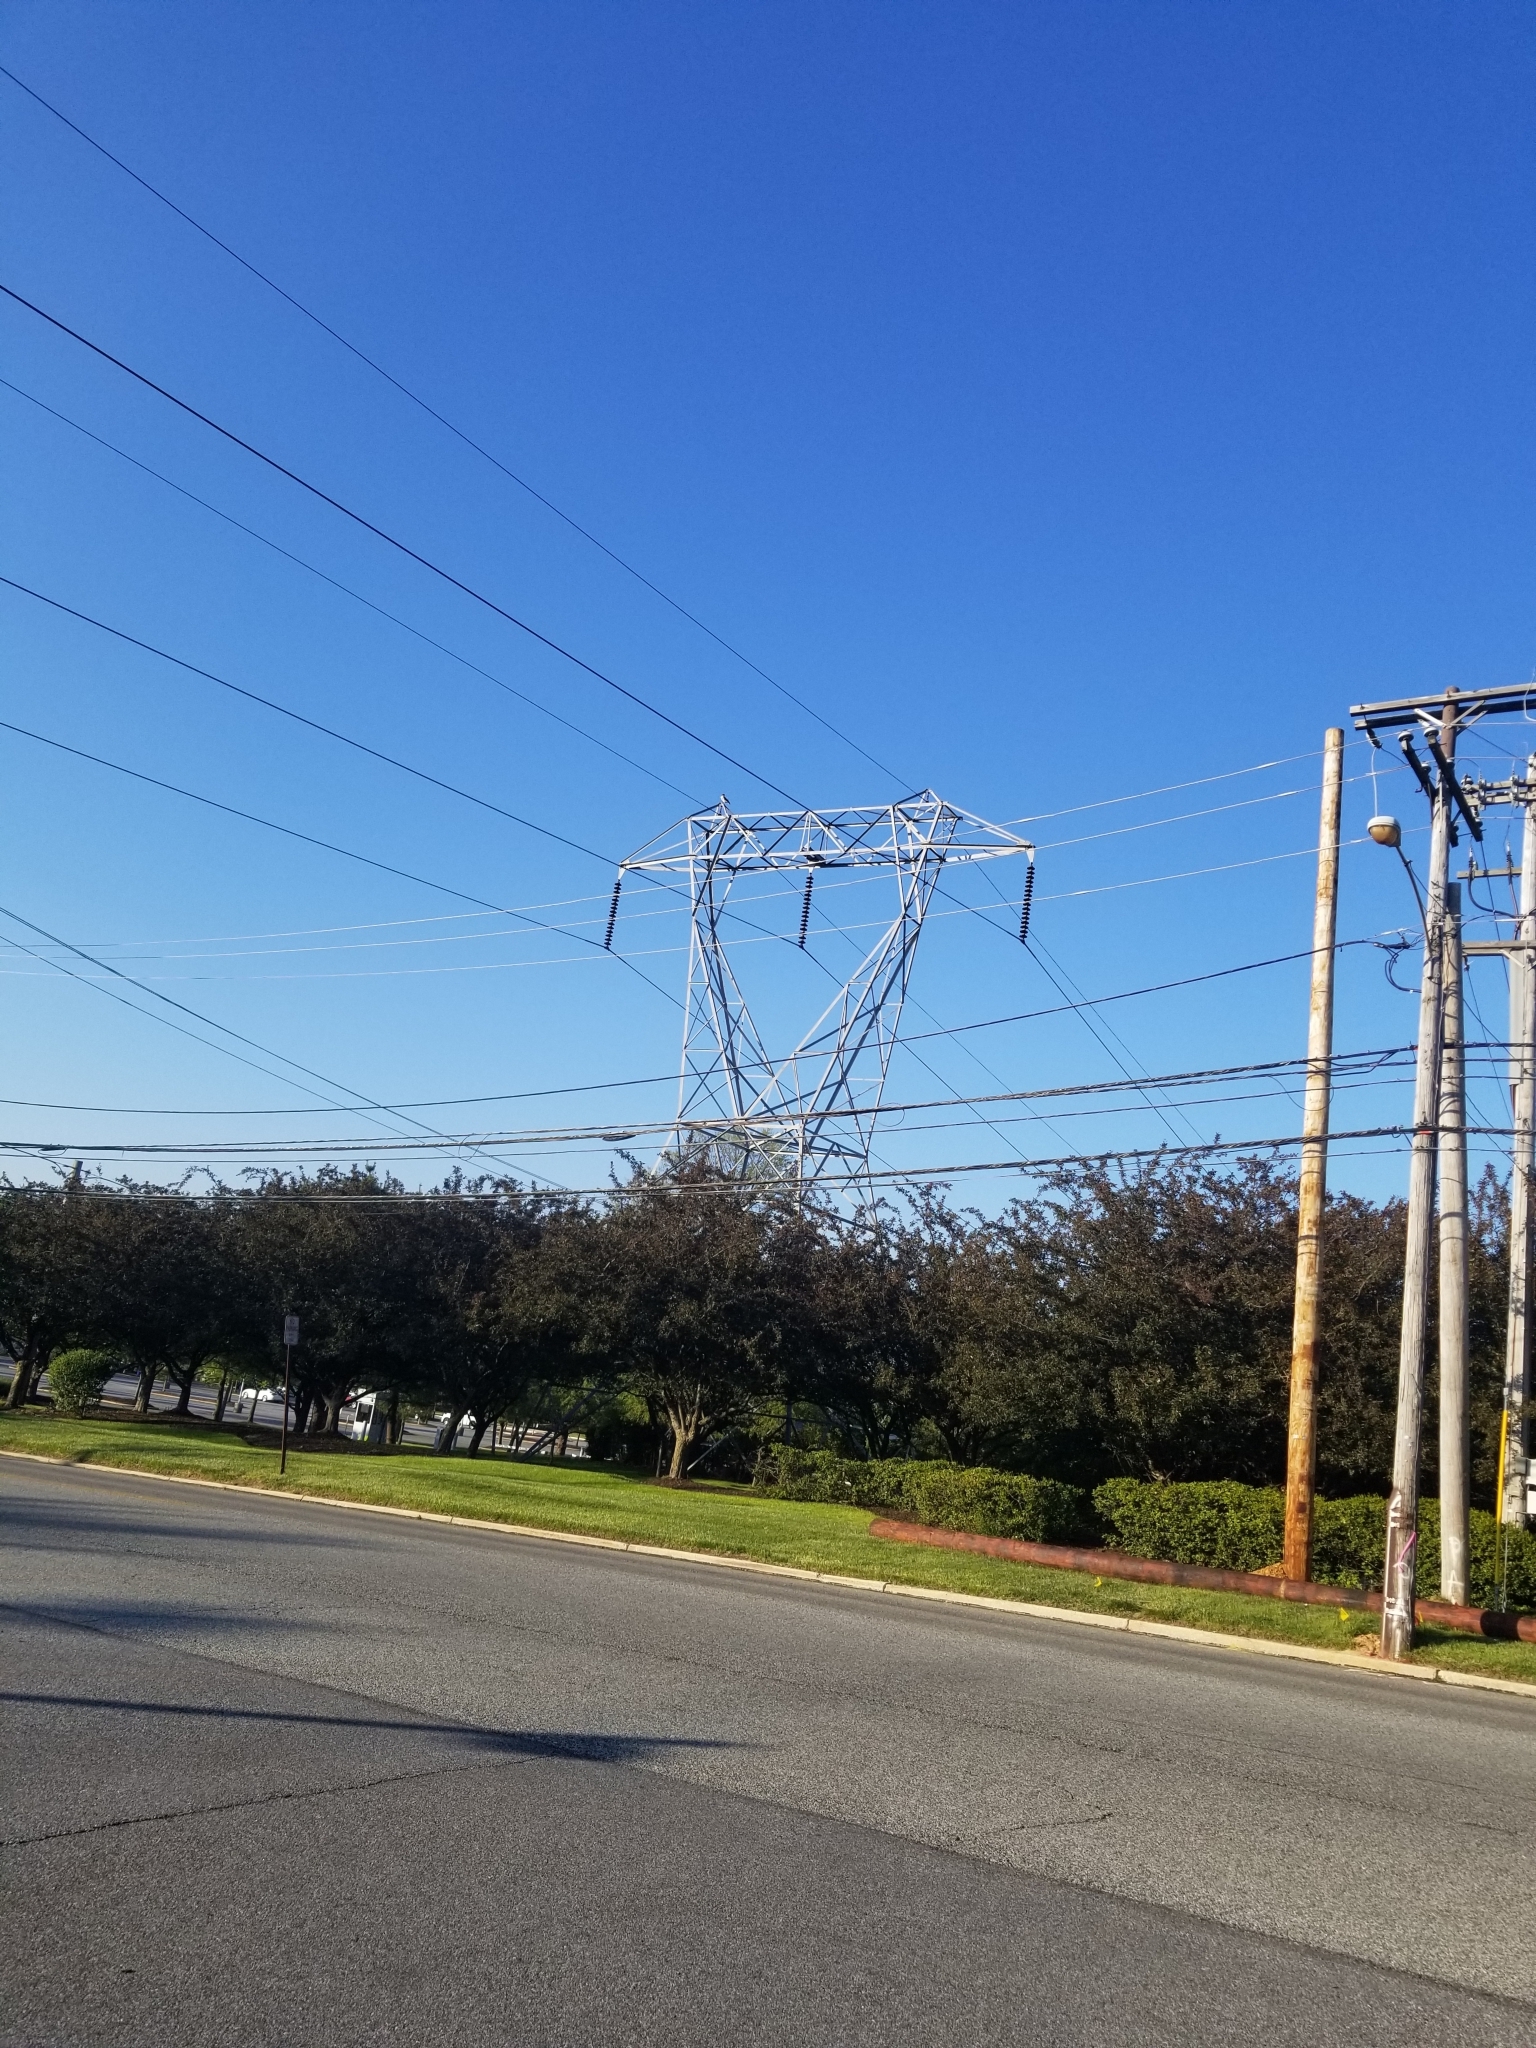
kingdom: Animalia
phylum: Chordata
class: Aves
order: Accipitriformes
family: Accipitridae
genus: Buteo
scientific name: Buteo jamaicensis
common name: Red-tailed hawk
